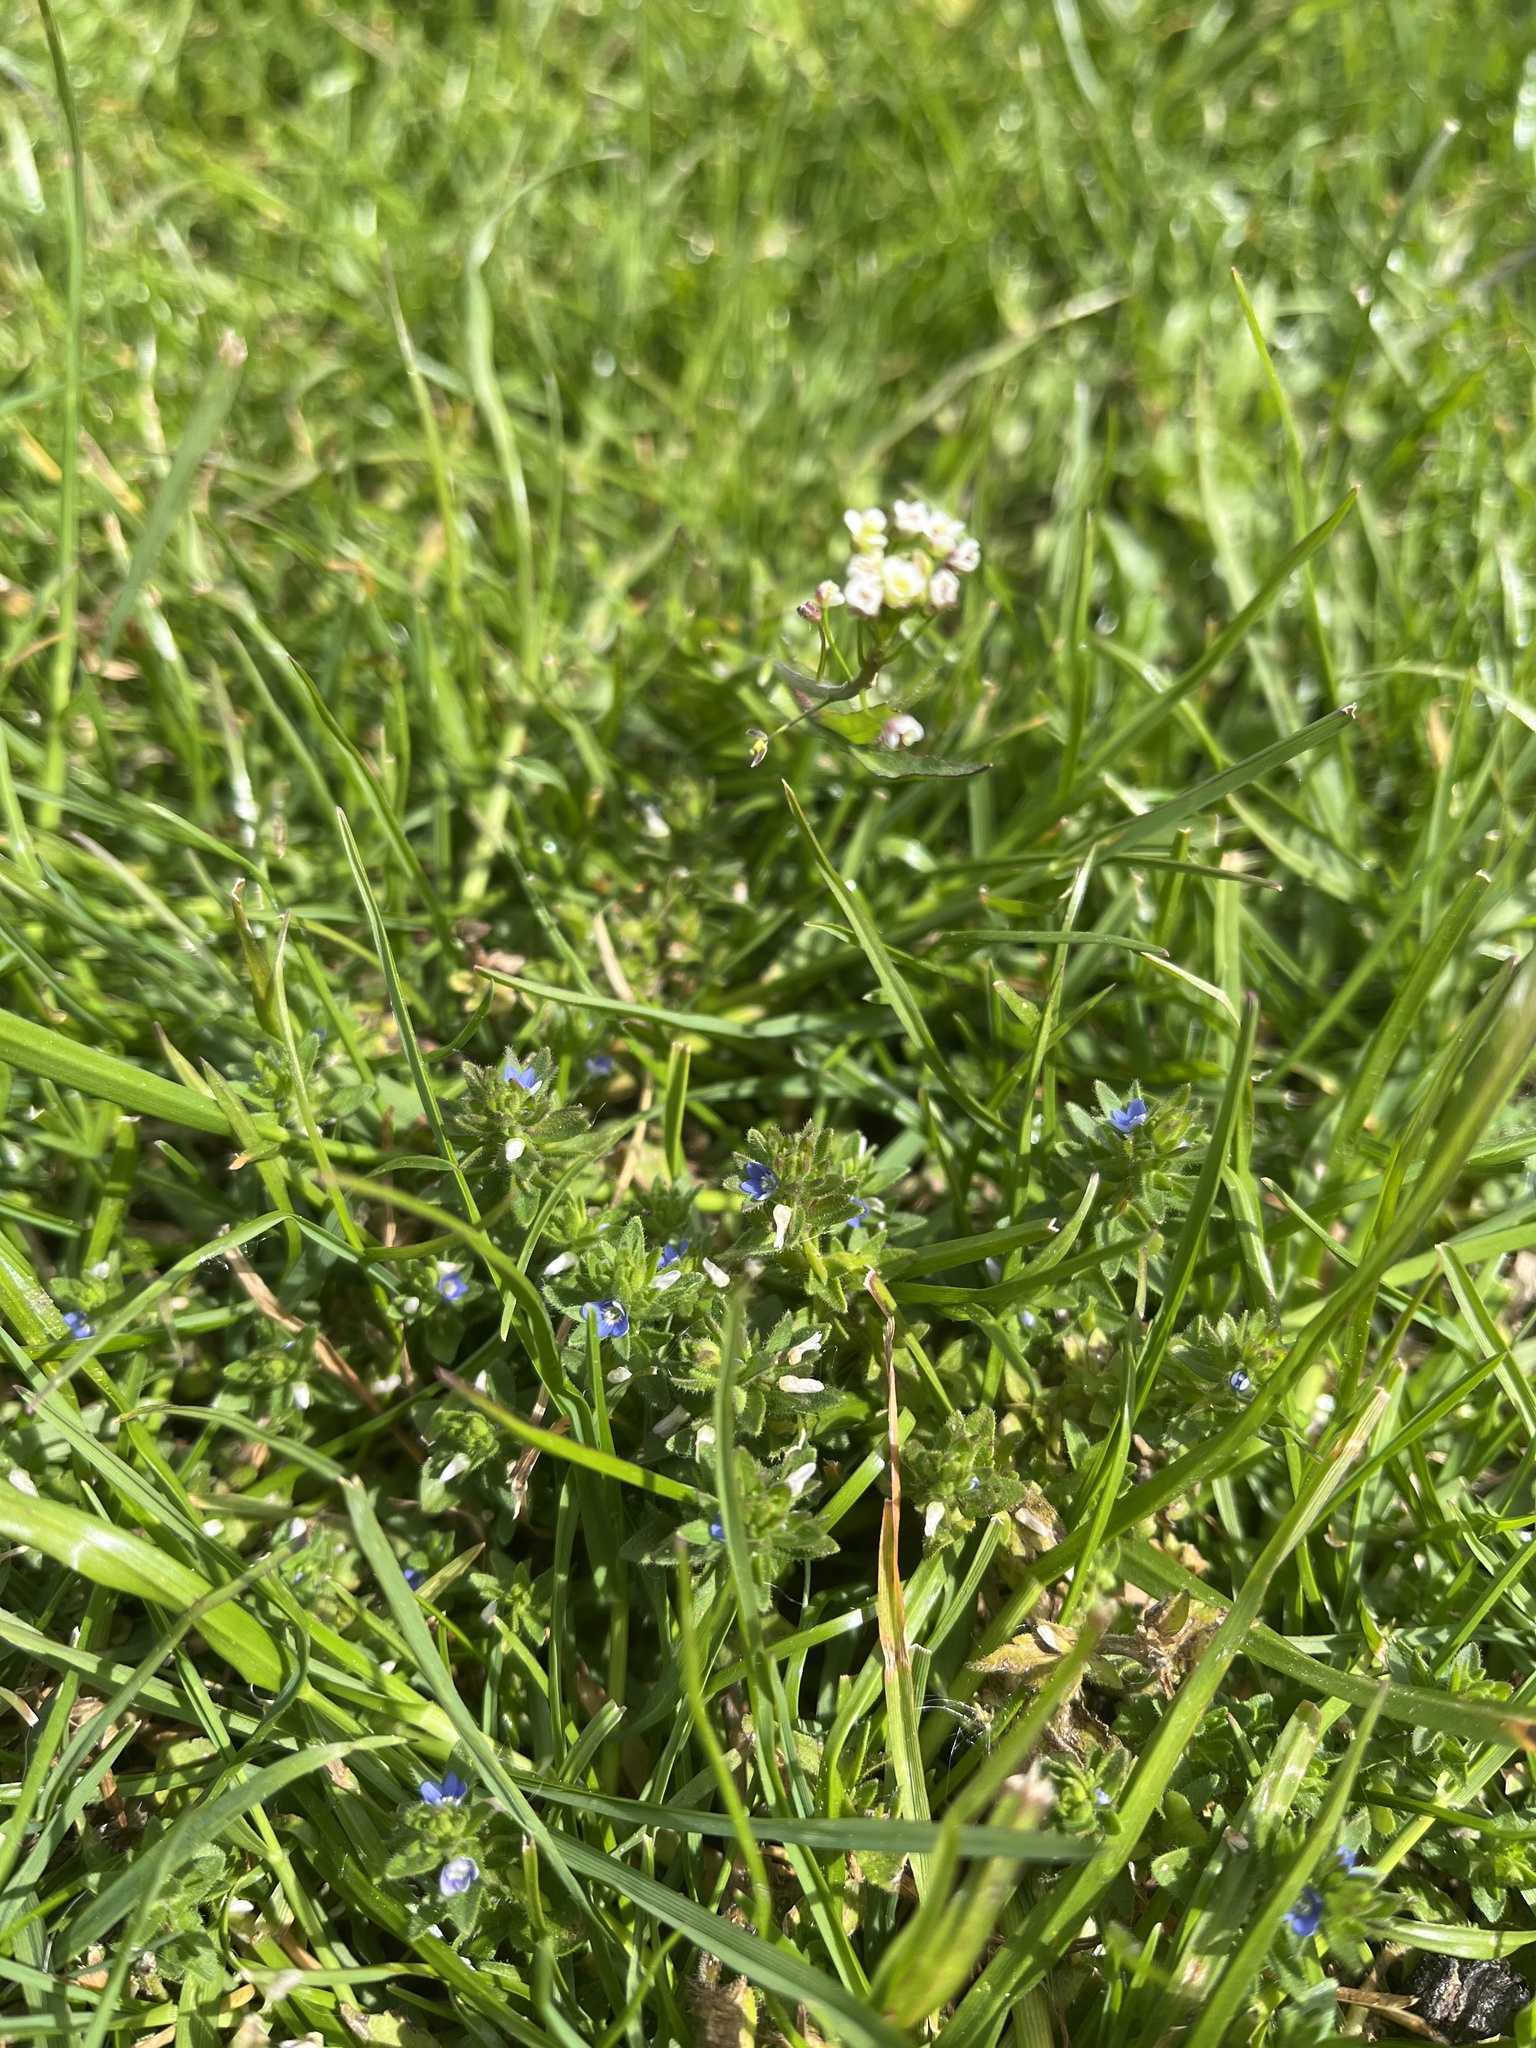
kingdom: Plantae
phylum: Tracheophyta
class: Magnoliopsida
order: Lamiales
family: Plantaginaceae
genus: Veronica
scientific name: Veronica arvensis
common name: Corn speedwell
